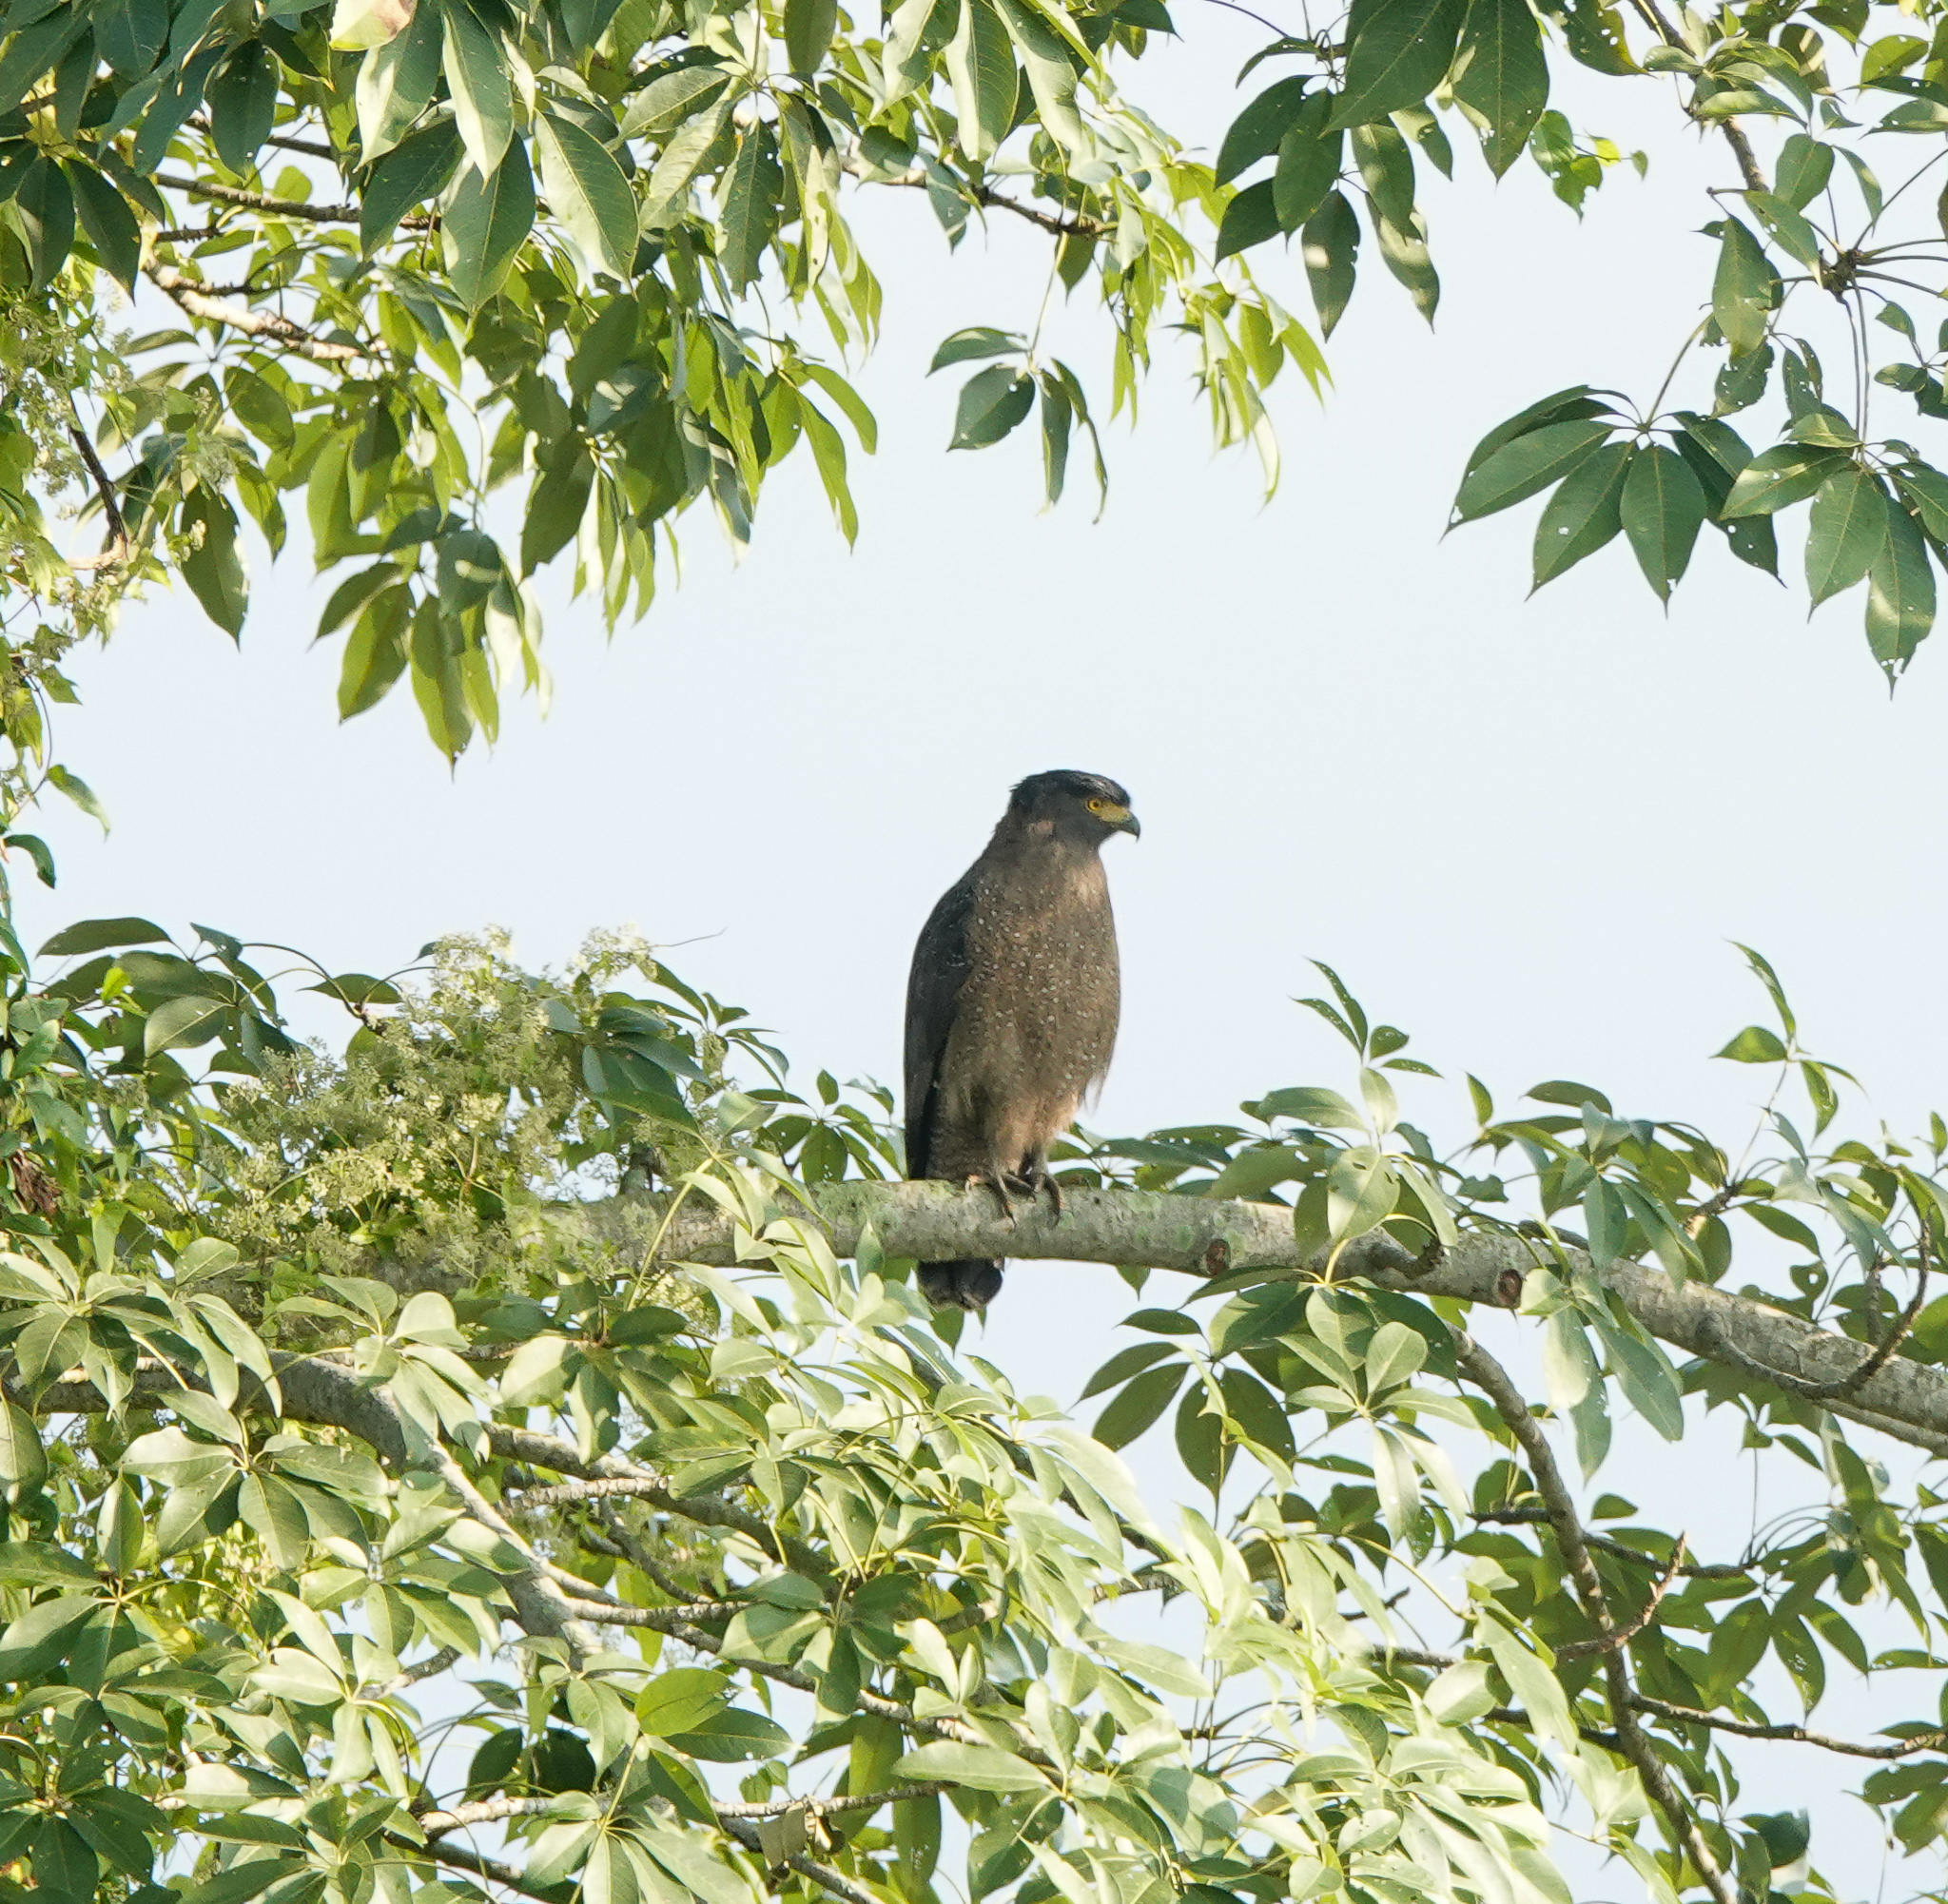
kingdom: Animalia
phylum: Chordata
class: Aves
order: Accipitriformes
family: Accipitridae
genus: Spilornis
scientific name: Spilornis cheela
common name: Crested serpent eagle
